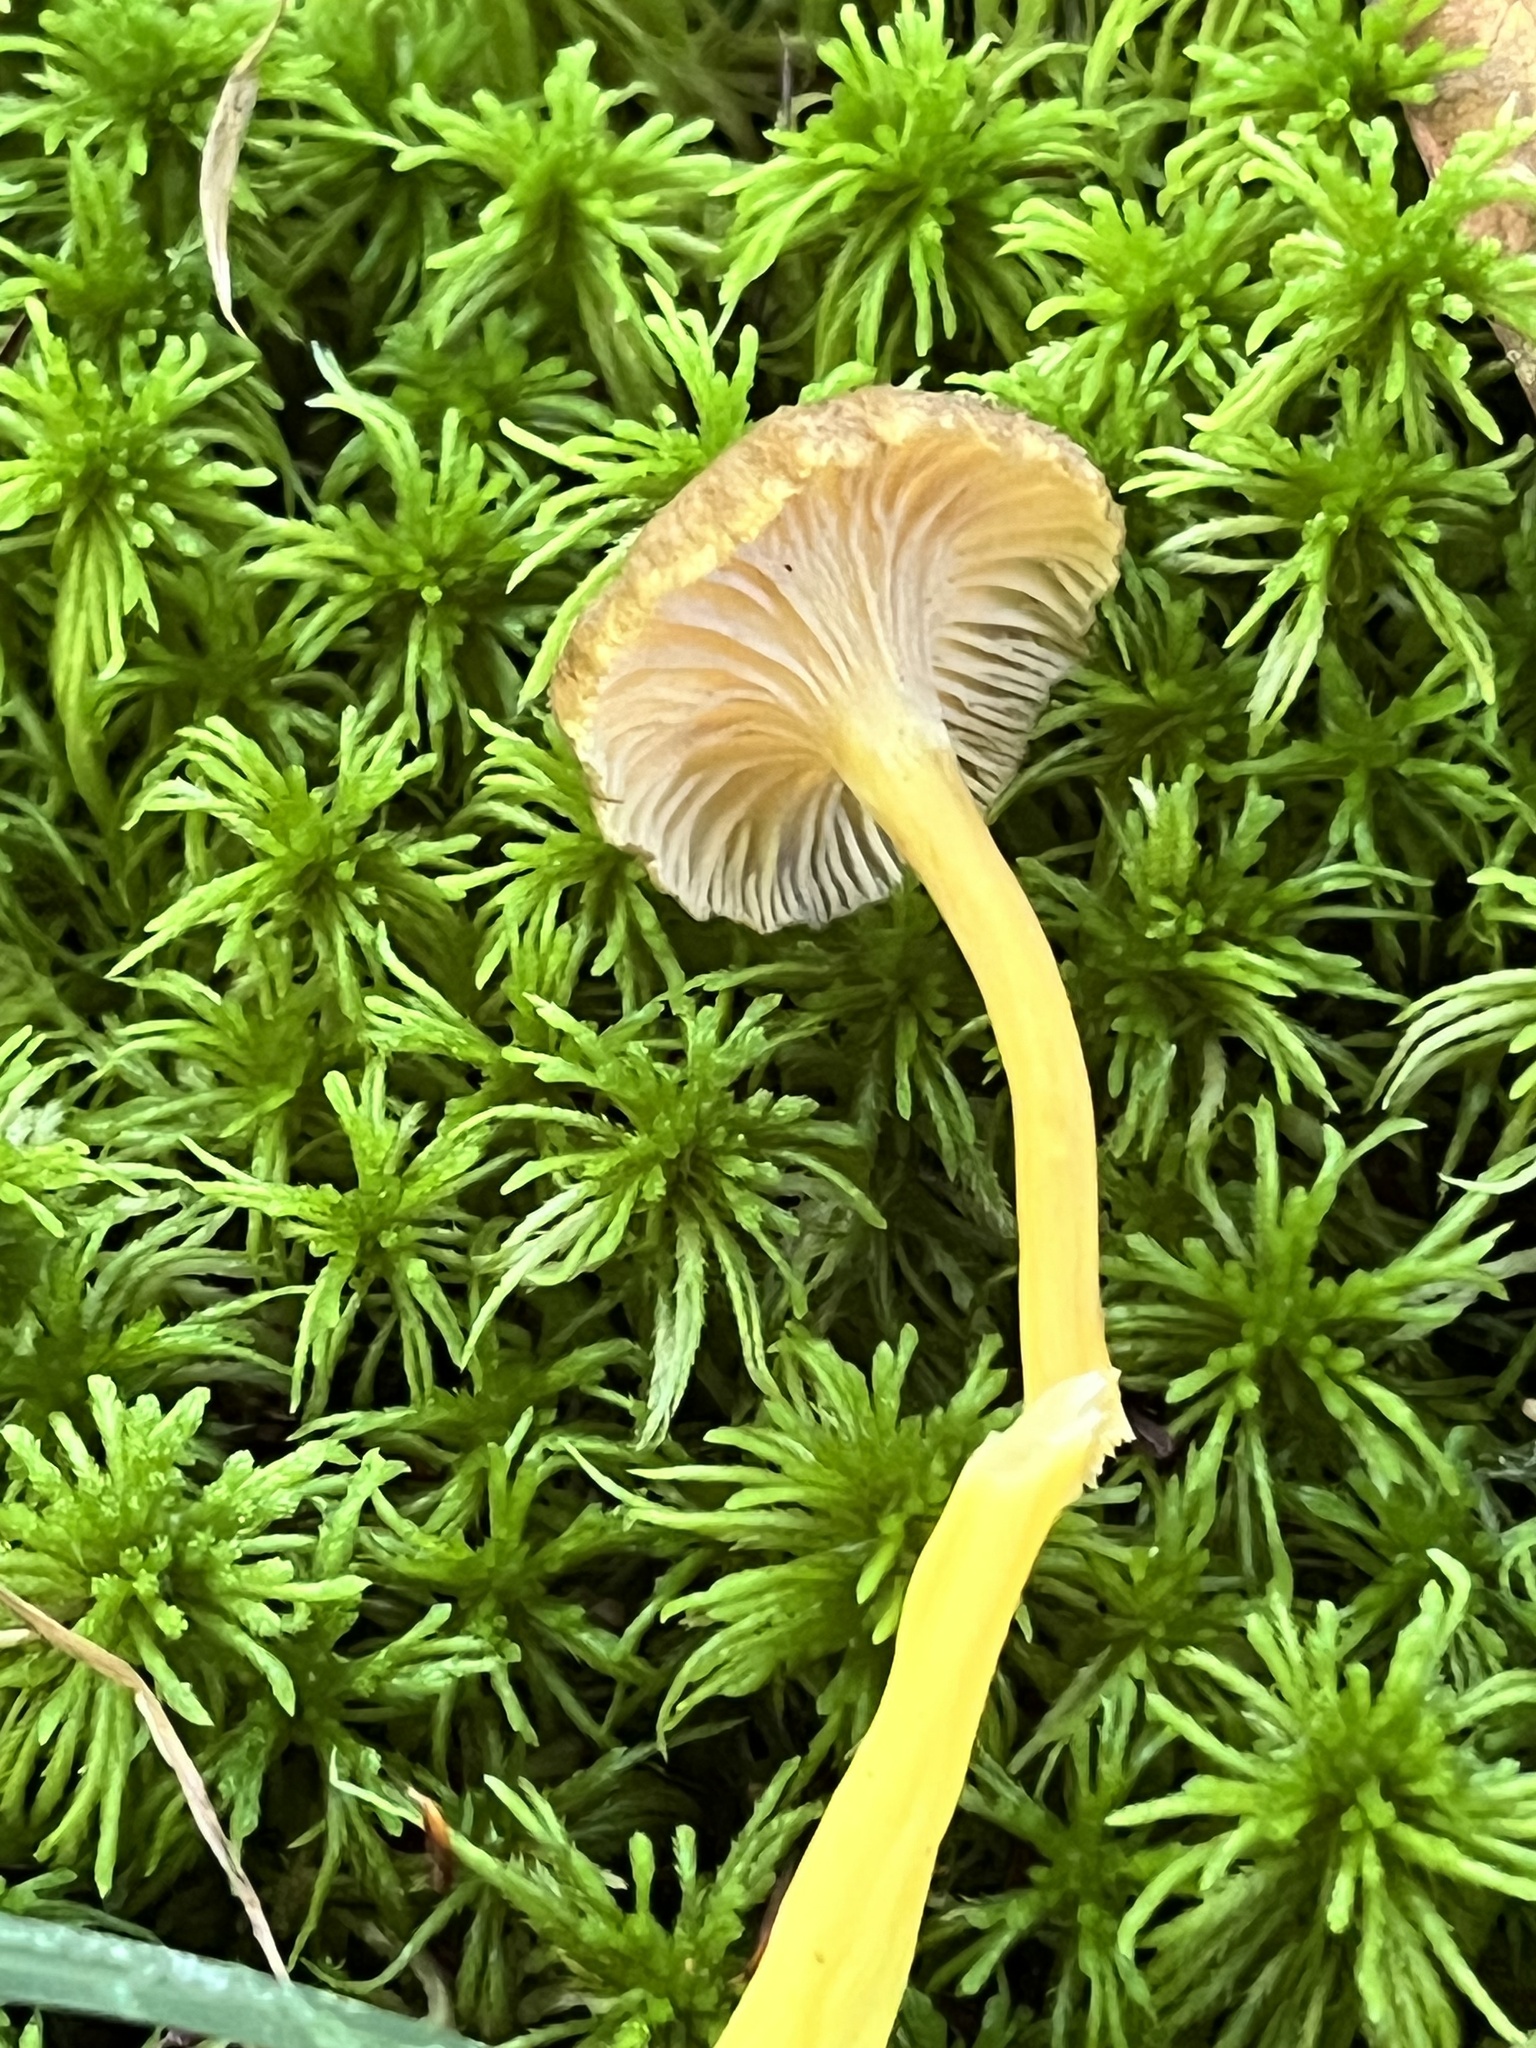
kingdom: Fungi
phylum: Basidiomycota
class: Agaricomycetes
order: Cantharellales
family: Hydnaceae
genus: Craterellus
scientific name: Craterellus tubaeformis
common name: Yellowfoot
